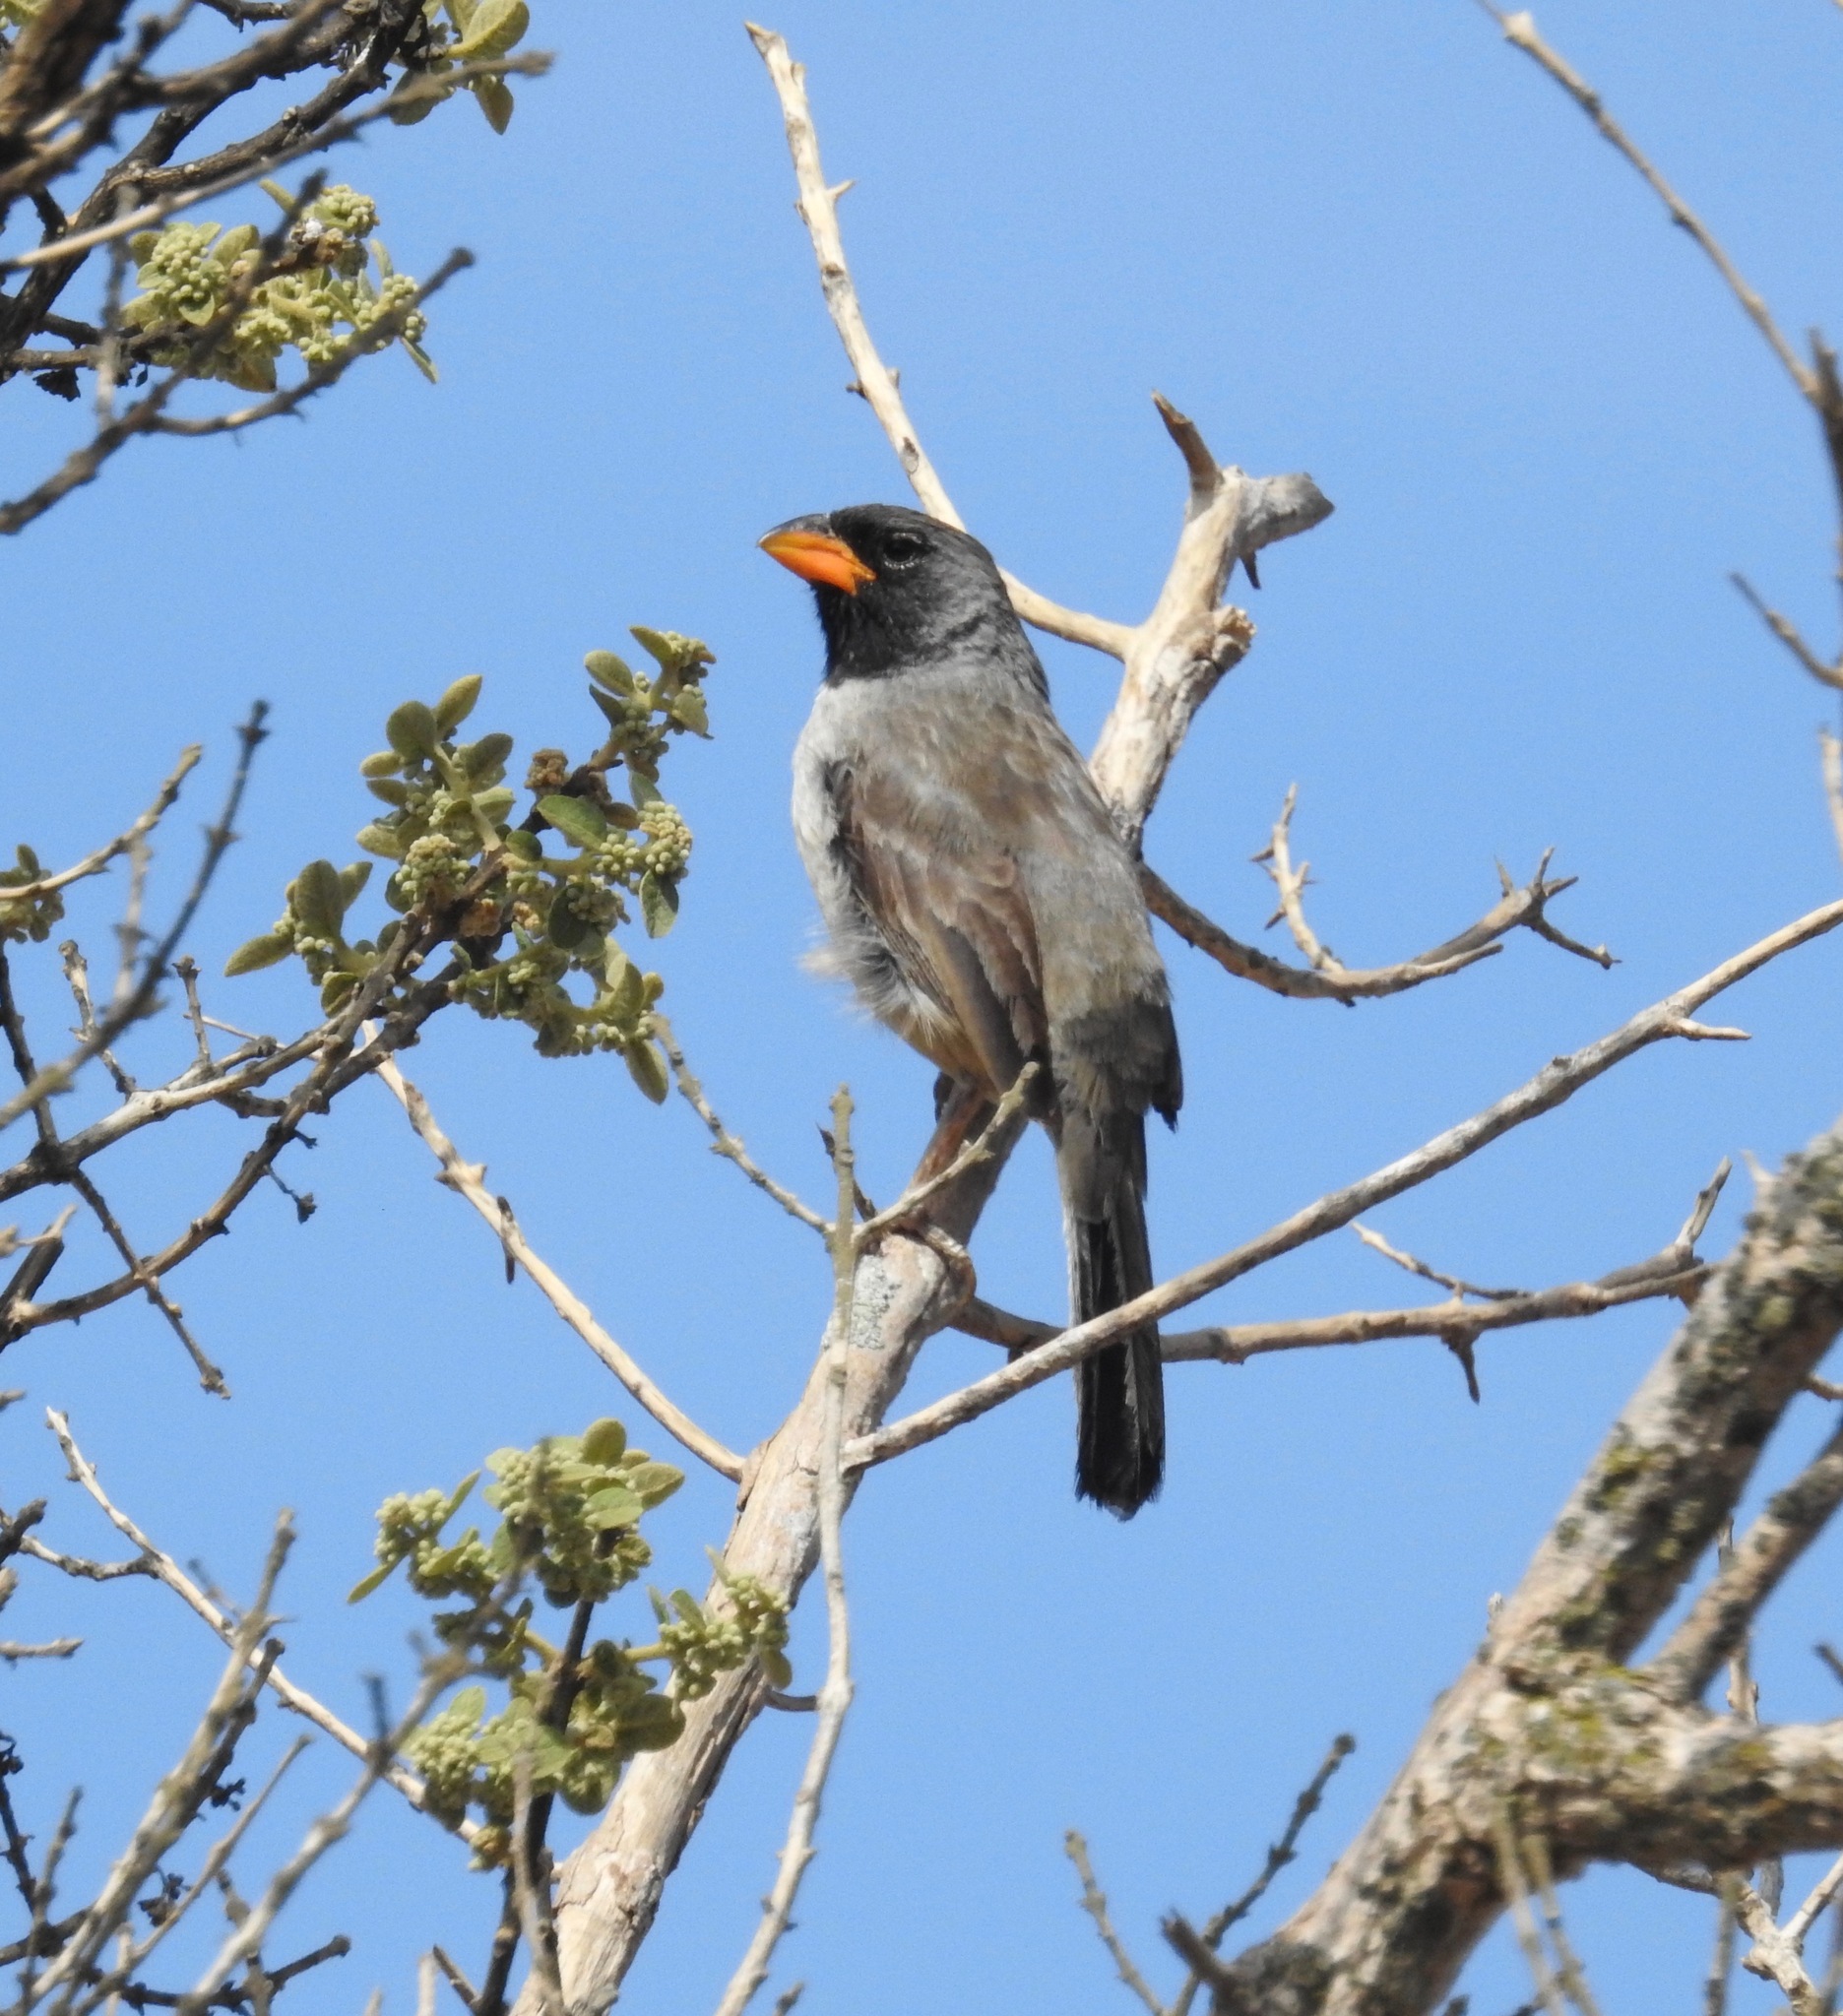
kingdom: Animalia
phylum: Chordata
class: Aves
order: Passeriformes
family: Thraupidae
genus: Saltatricula
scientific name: Saltatricula atricollis
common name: Black-throated saltator
